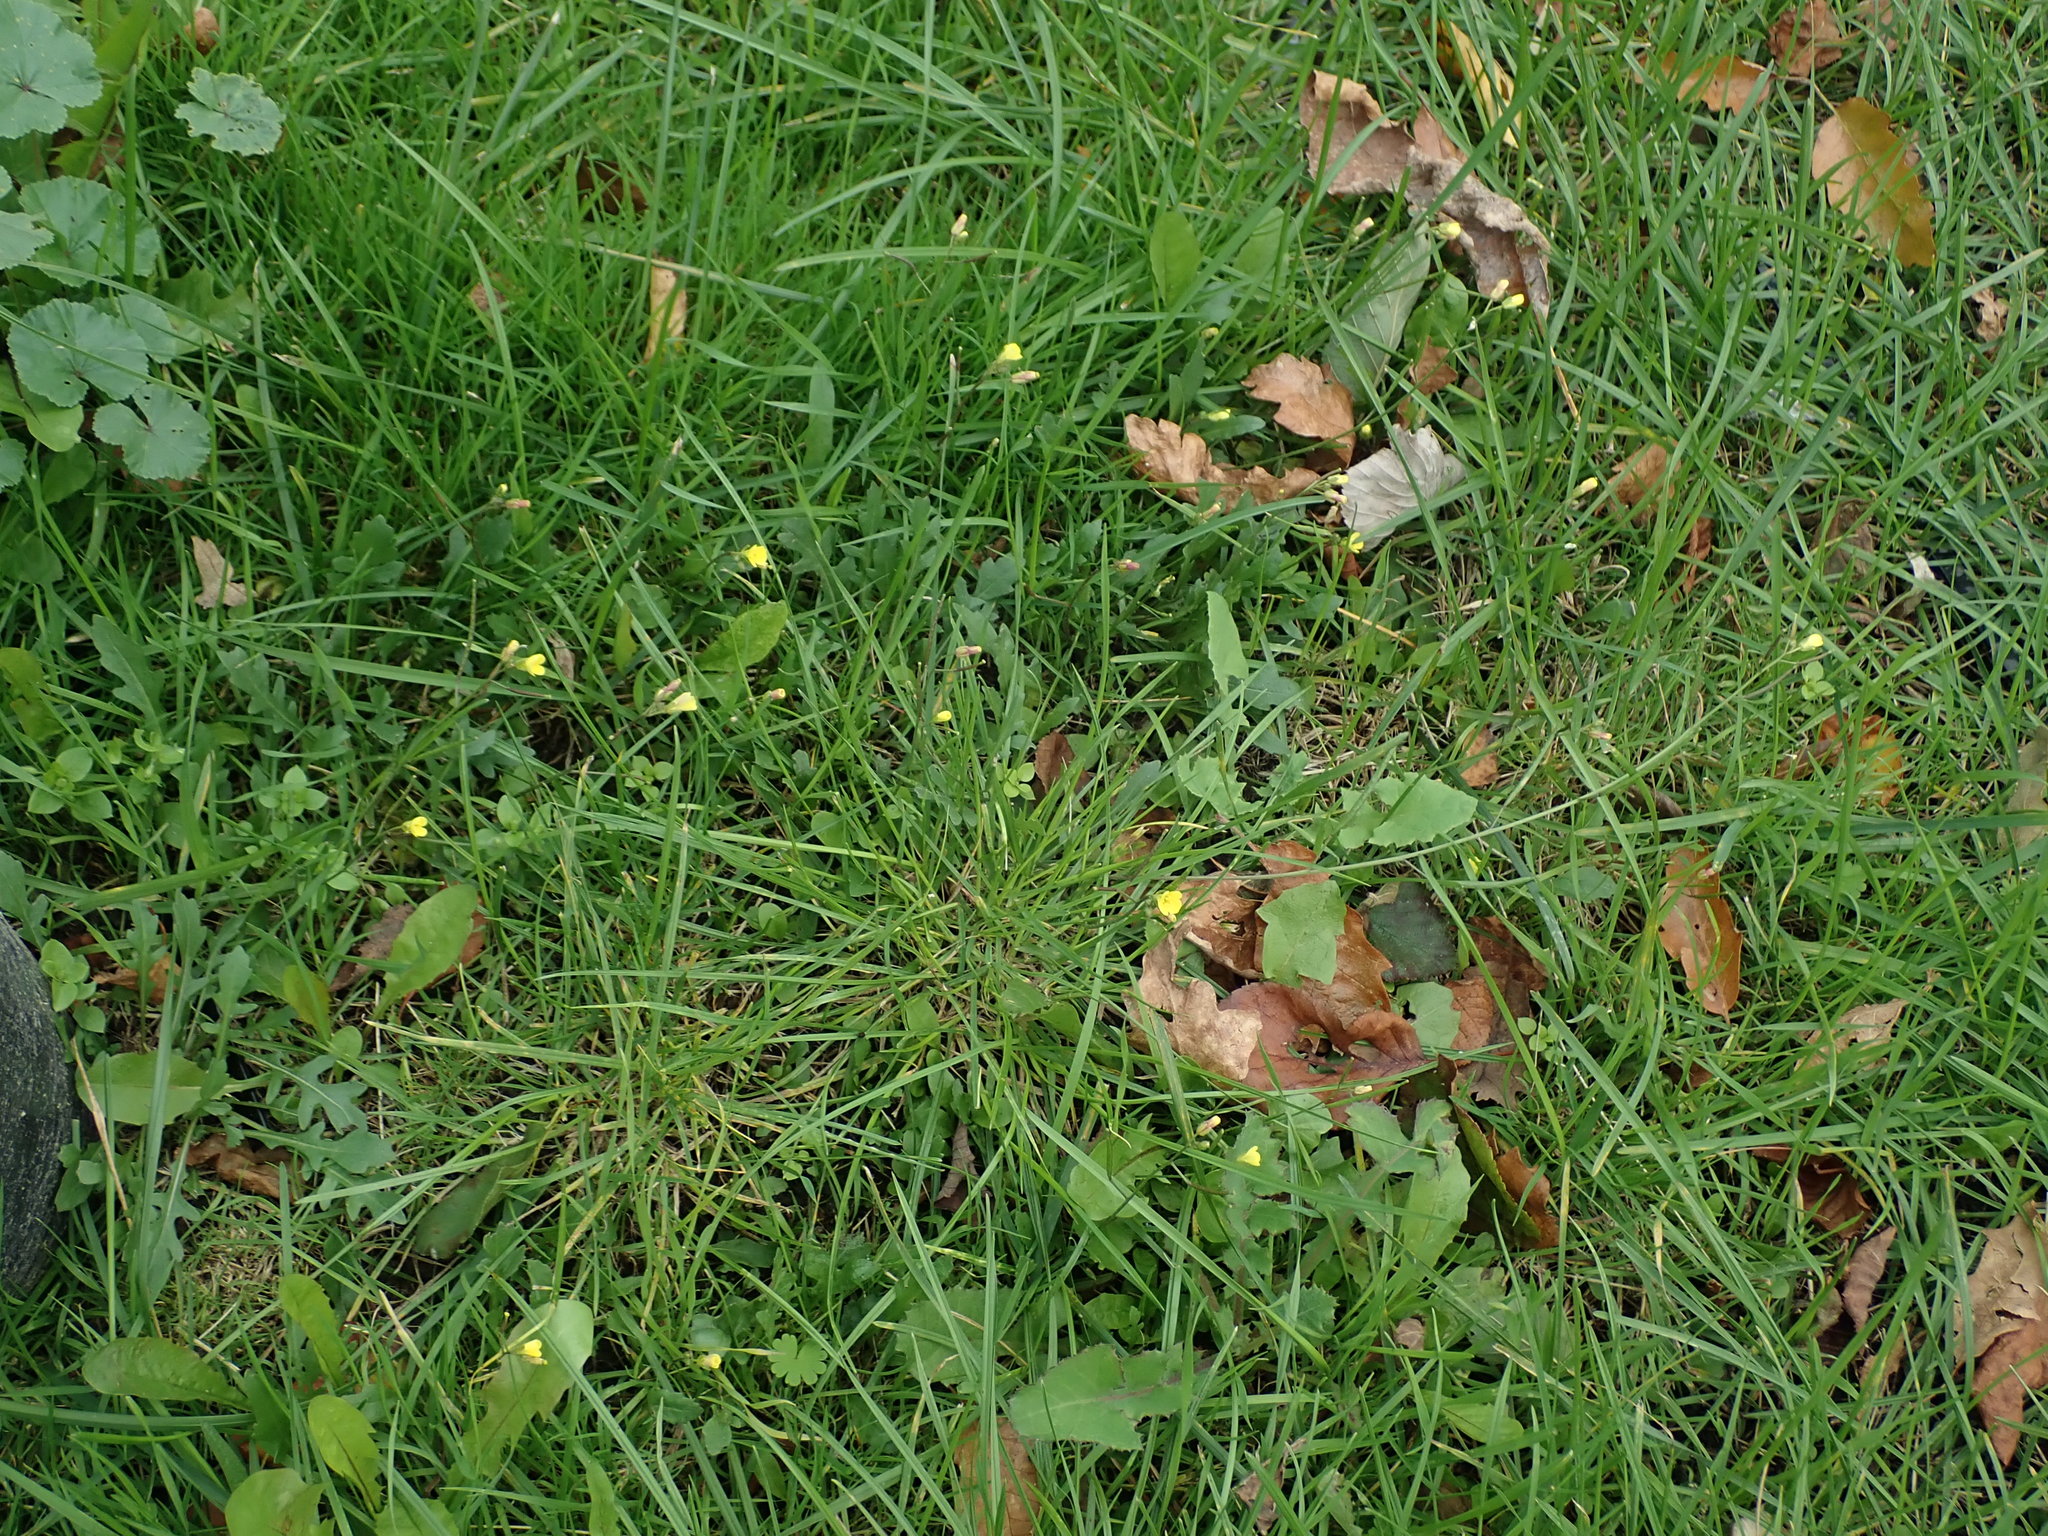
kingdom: Plantae
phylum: Tracheophyta
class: Magnoliopsida
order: Brassicales
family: Brassicaceae
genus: Diplotaxis
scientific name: Diplotaxis muralis
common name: Annual wall-rocket
